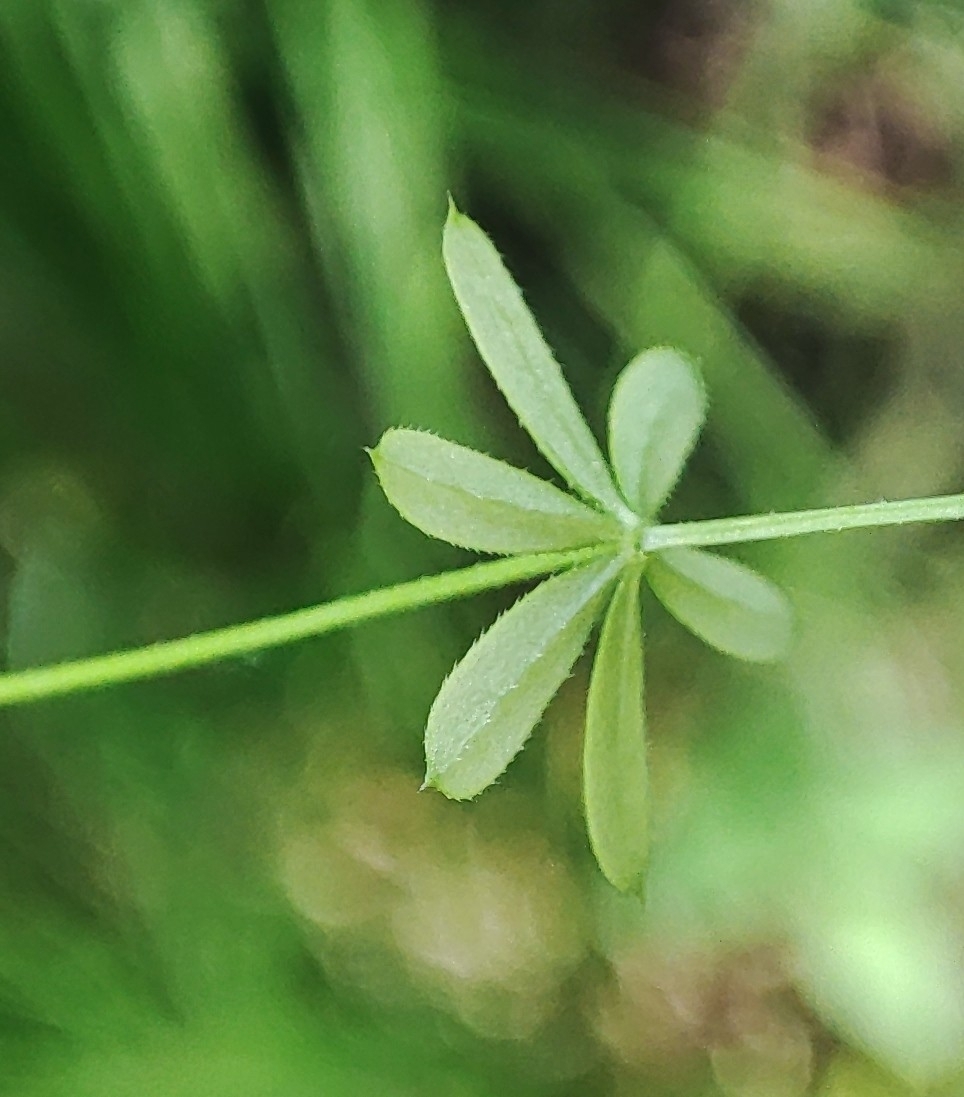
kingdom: Plantae
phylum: Tracheophyta
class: Magnoliopsida
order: Gentianales
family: Rubiaceae
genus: Galium
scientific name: Galium uliginosum
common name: Fen bedstraw
